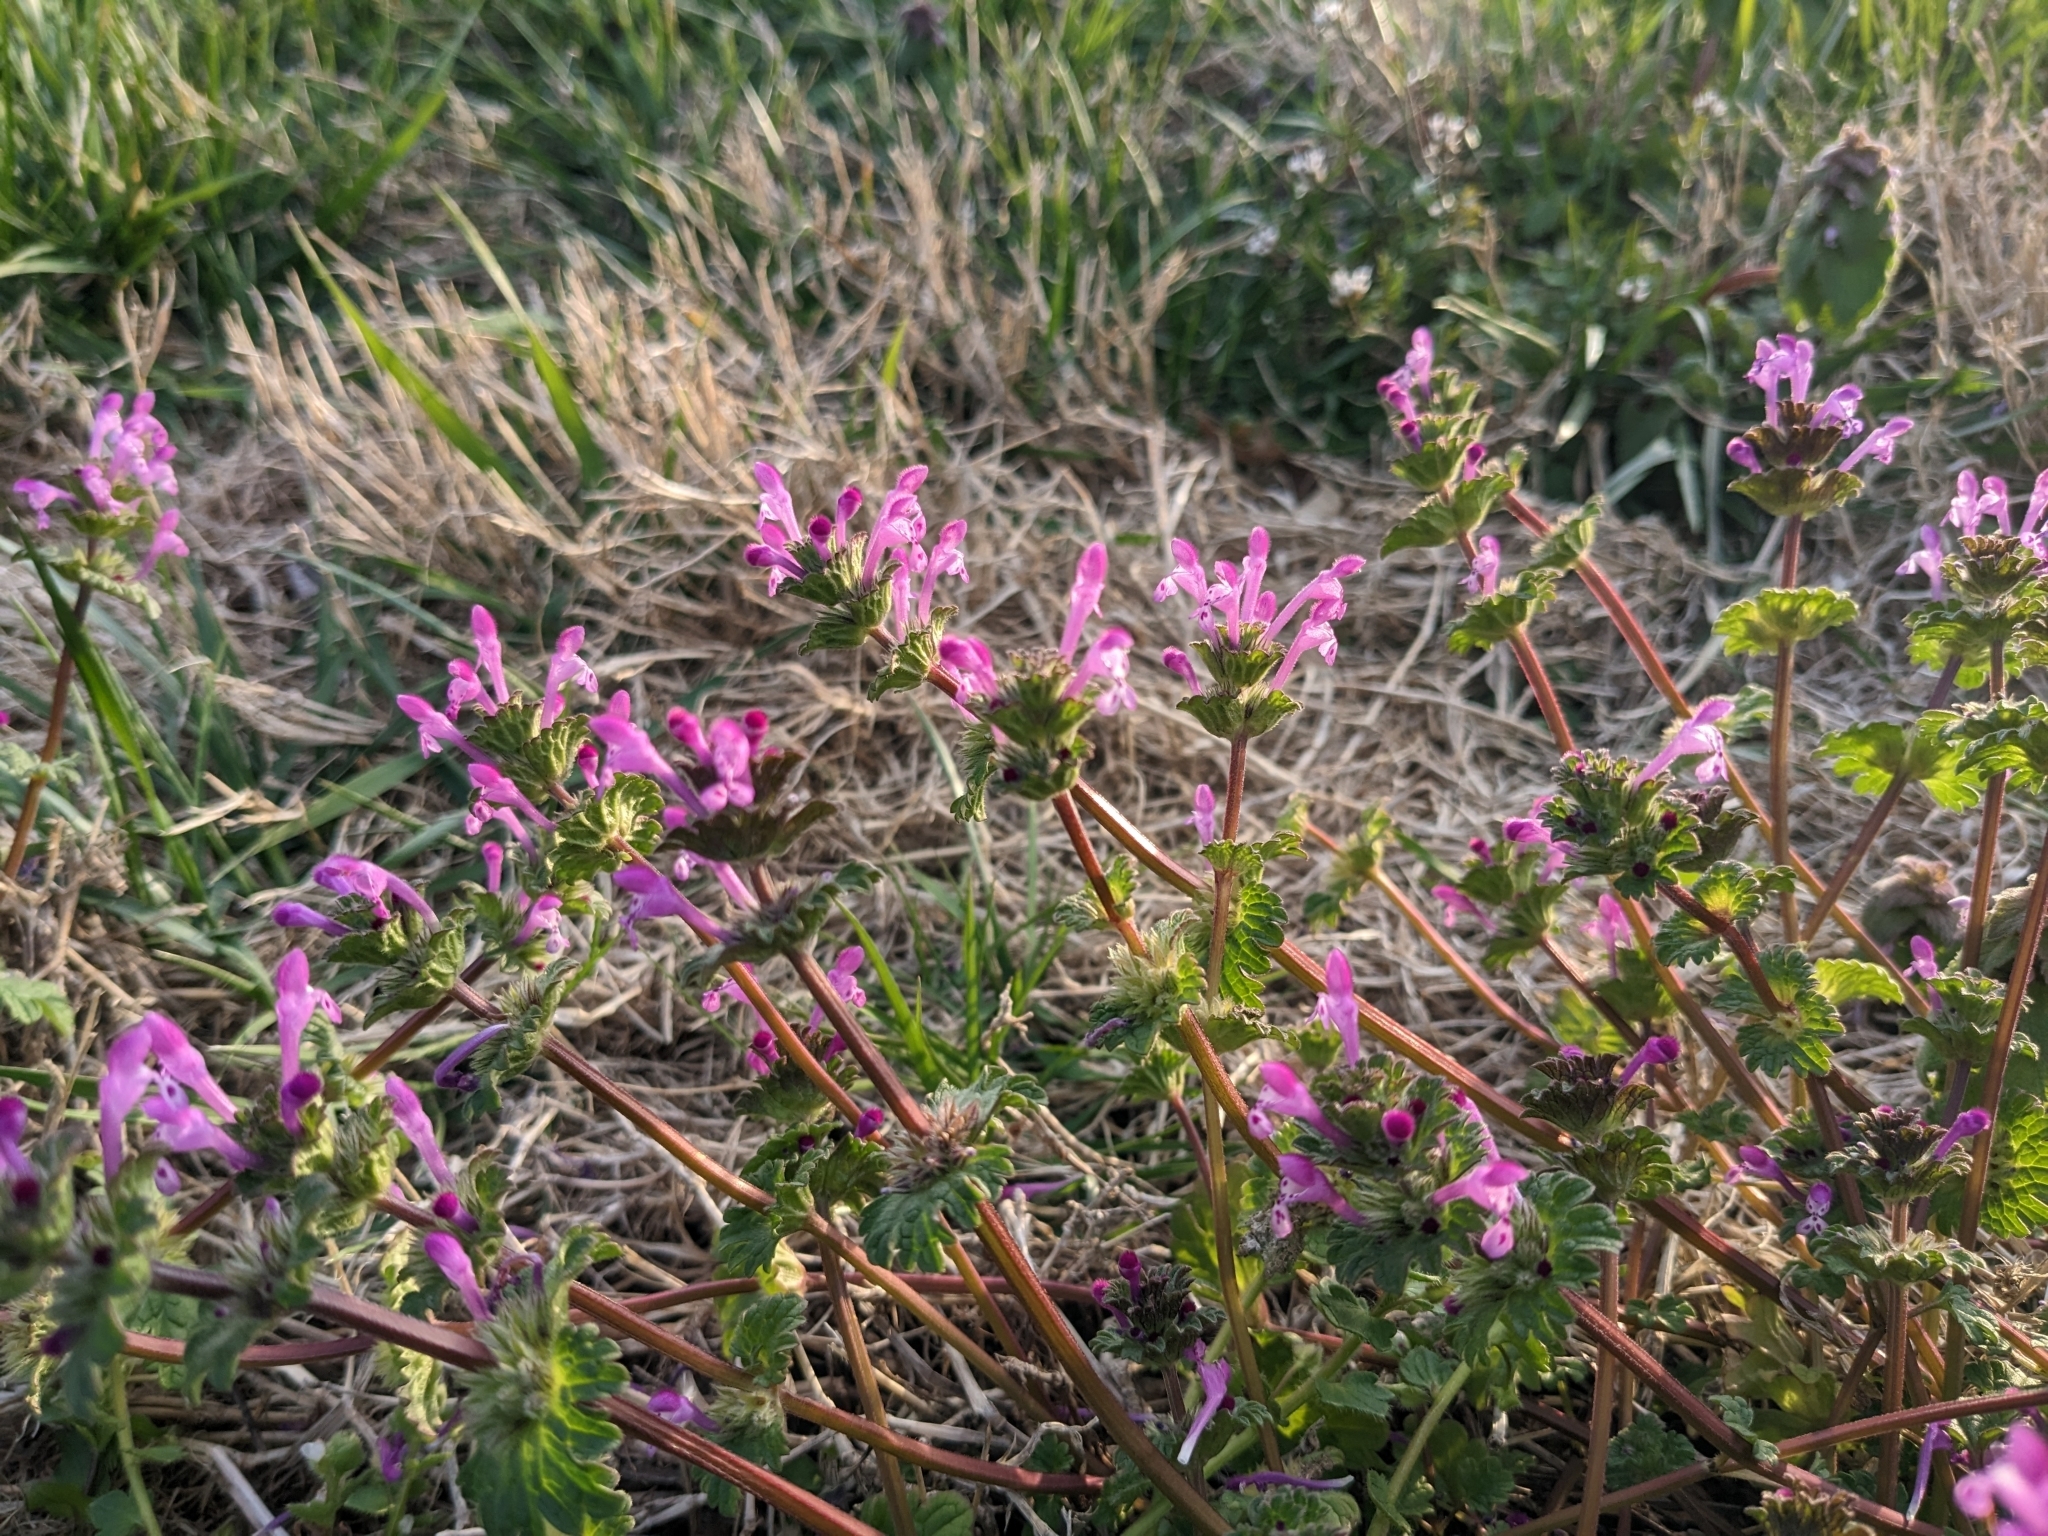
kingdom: Plantae
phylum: Tracheophyta
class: Magnoliopsida
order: Lamiales
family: Lamiaceae
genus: Lamium
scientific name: Lamium amplexicaule
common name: Henbit dead-nettle
